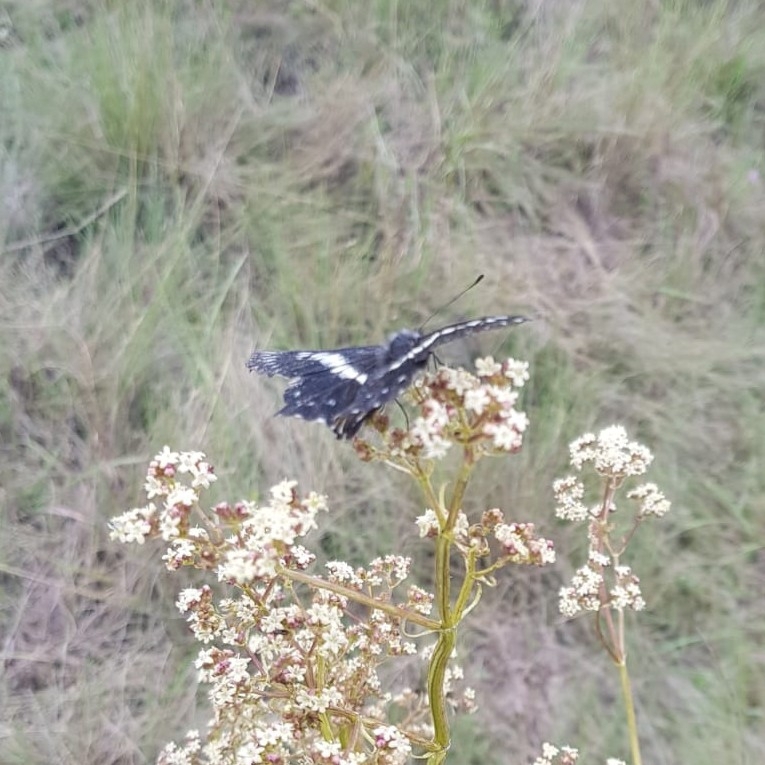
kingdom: Animalia
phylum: Arthropoda
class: Insecta
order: Lepidoptera
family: Pieridae
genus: Archonias
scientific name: Archonias teutila
